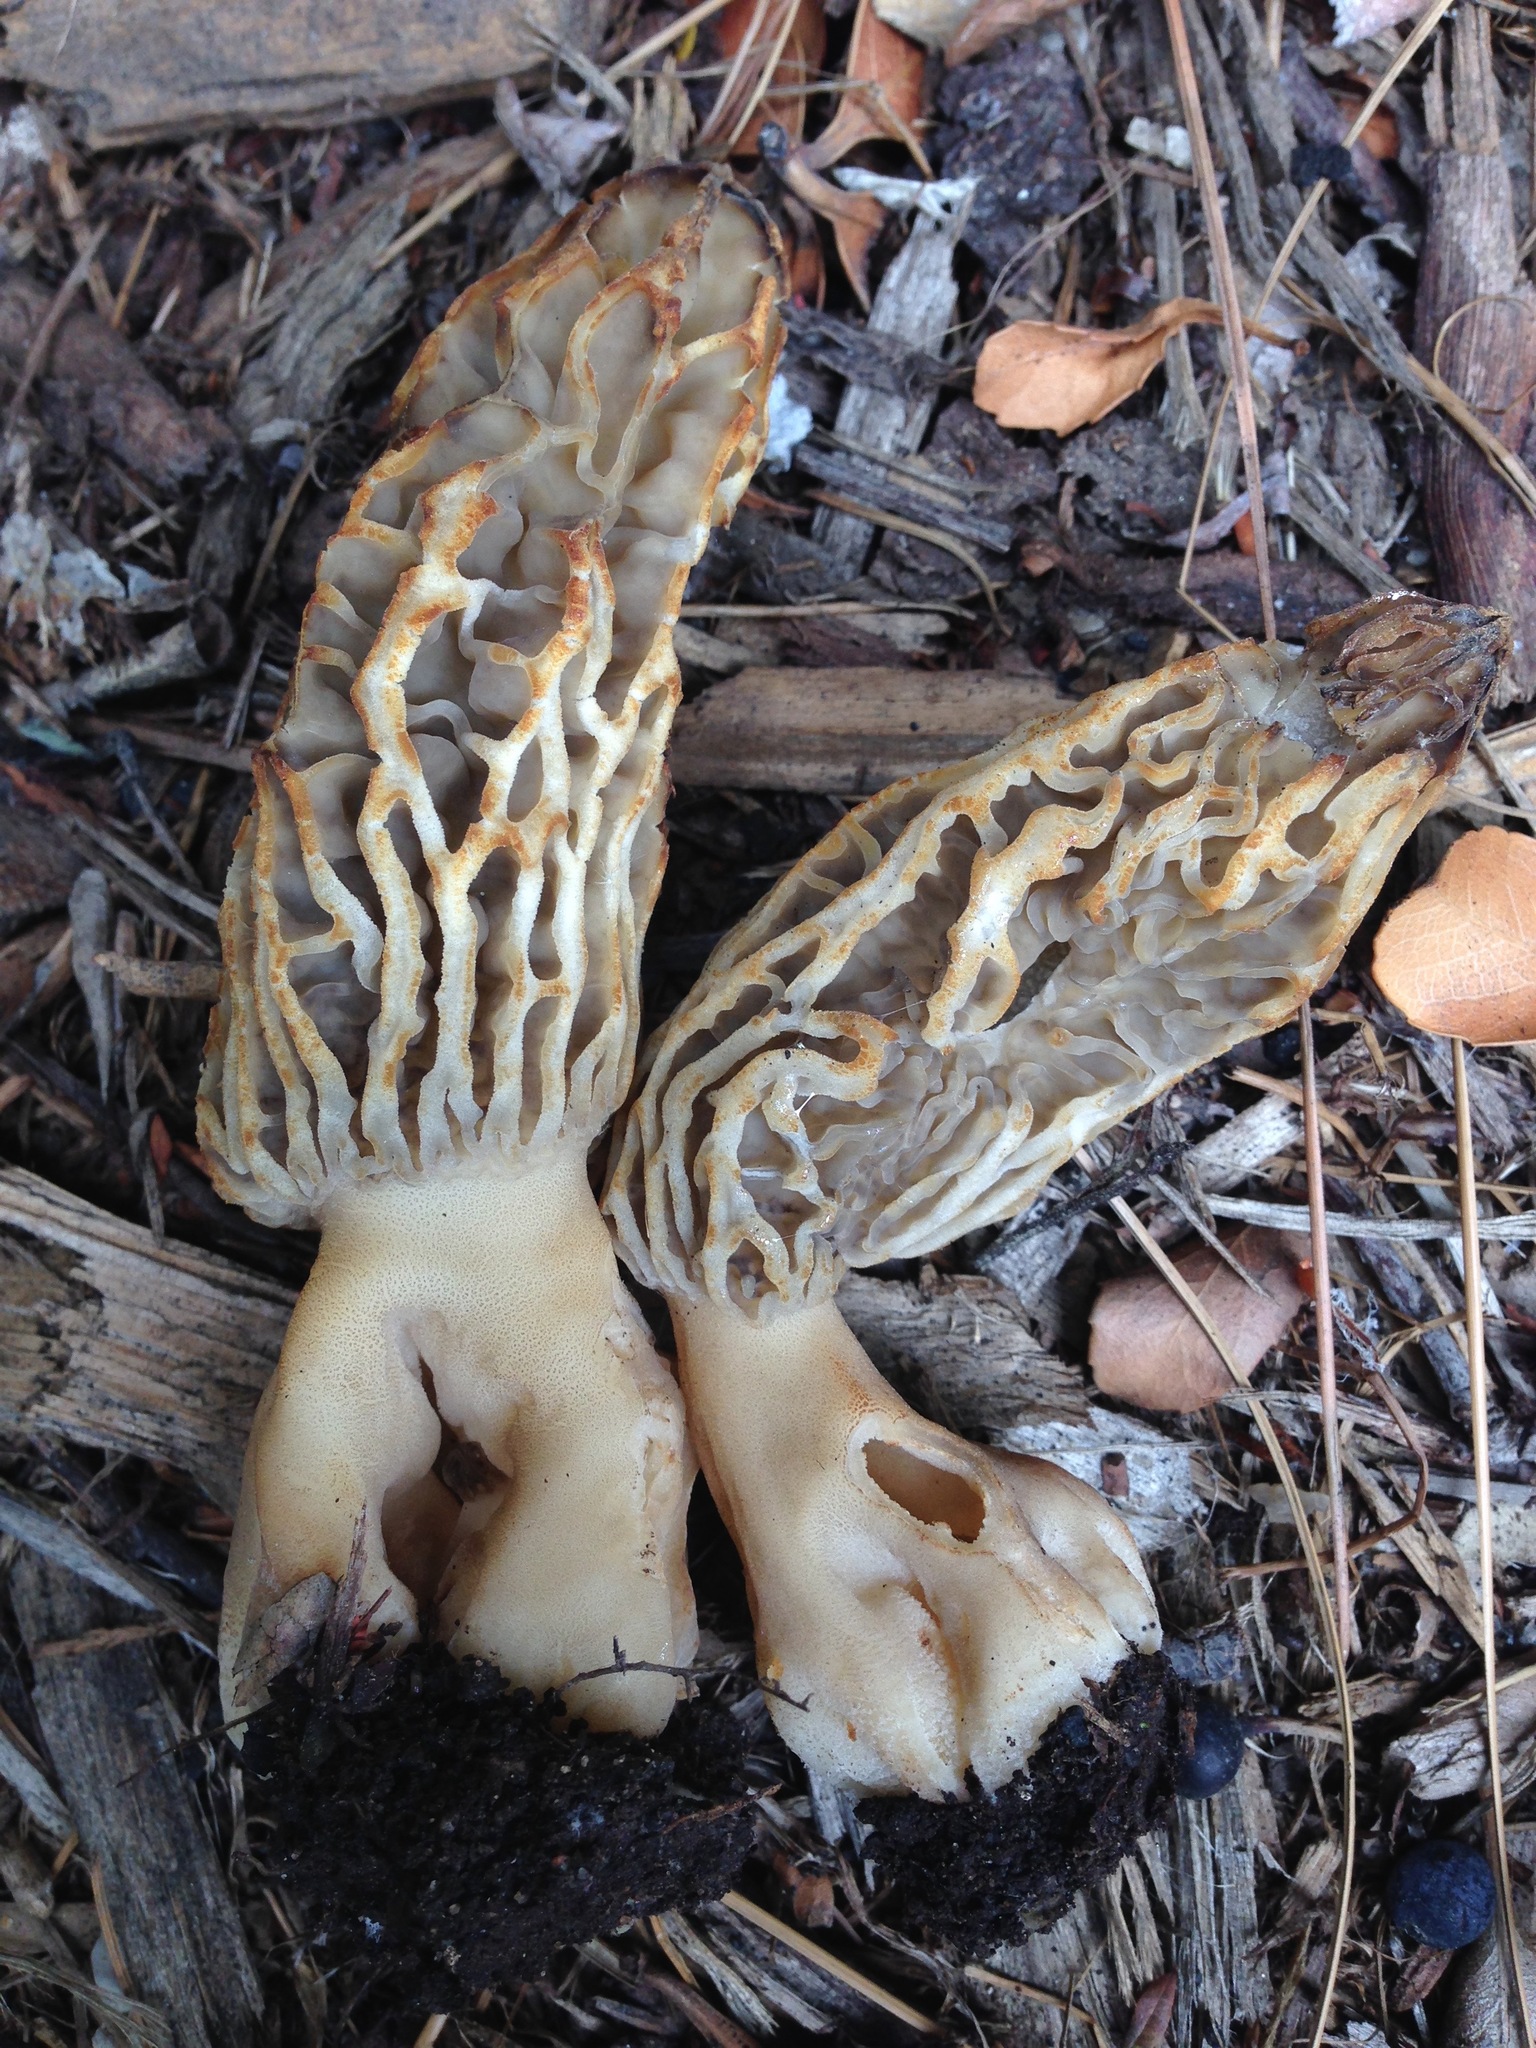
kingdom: Fungi
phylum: Ascomycota
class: Pezizomycetes
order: Pezizales
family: Morchellaceae
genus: Morchella
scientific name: Morchella rufobrunnea
